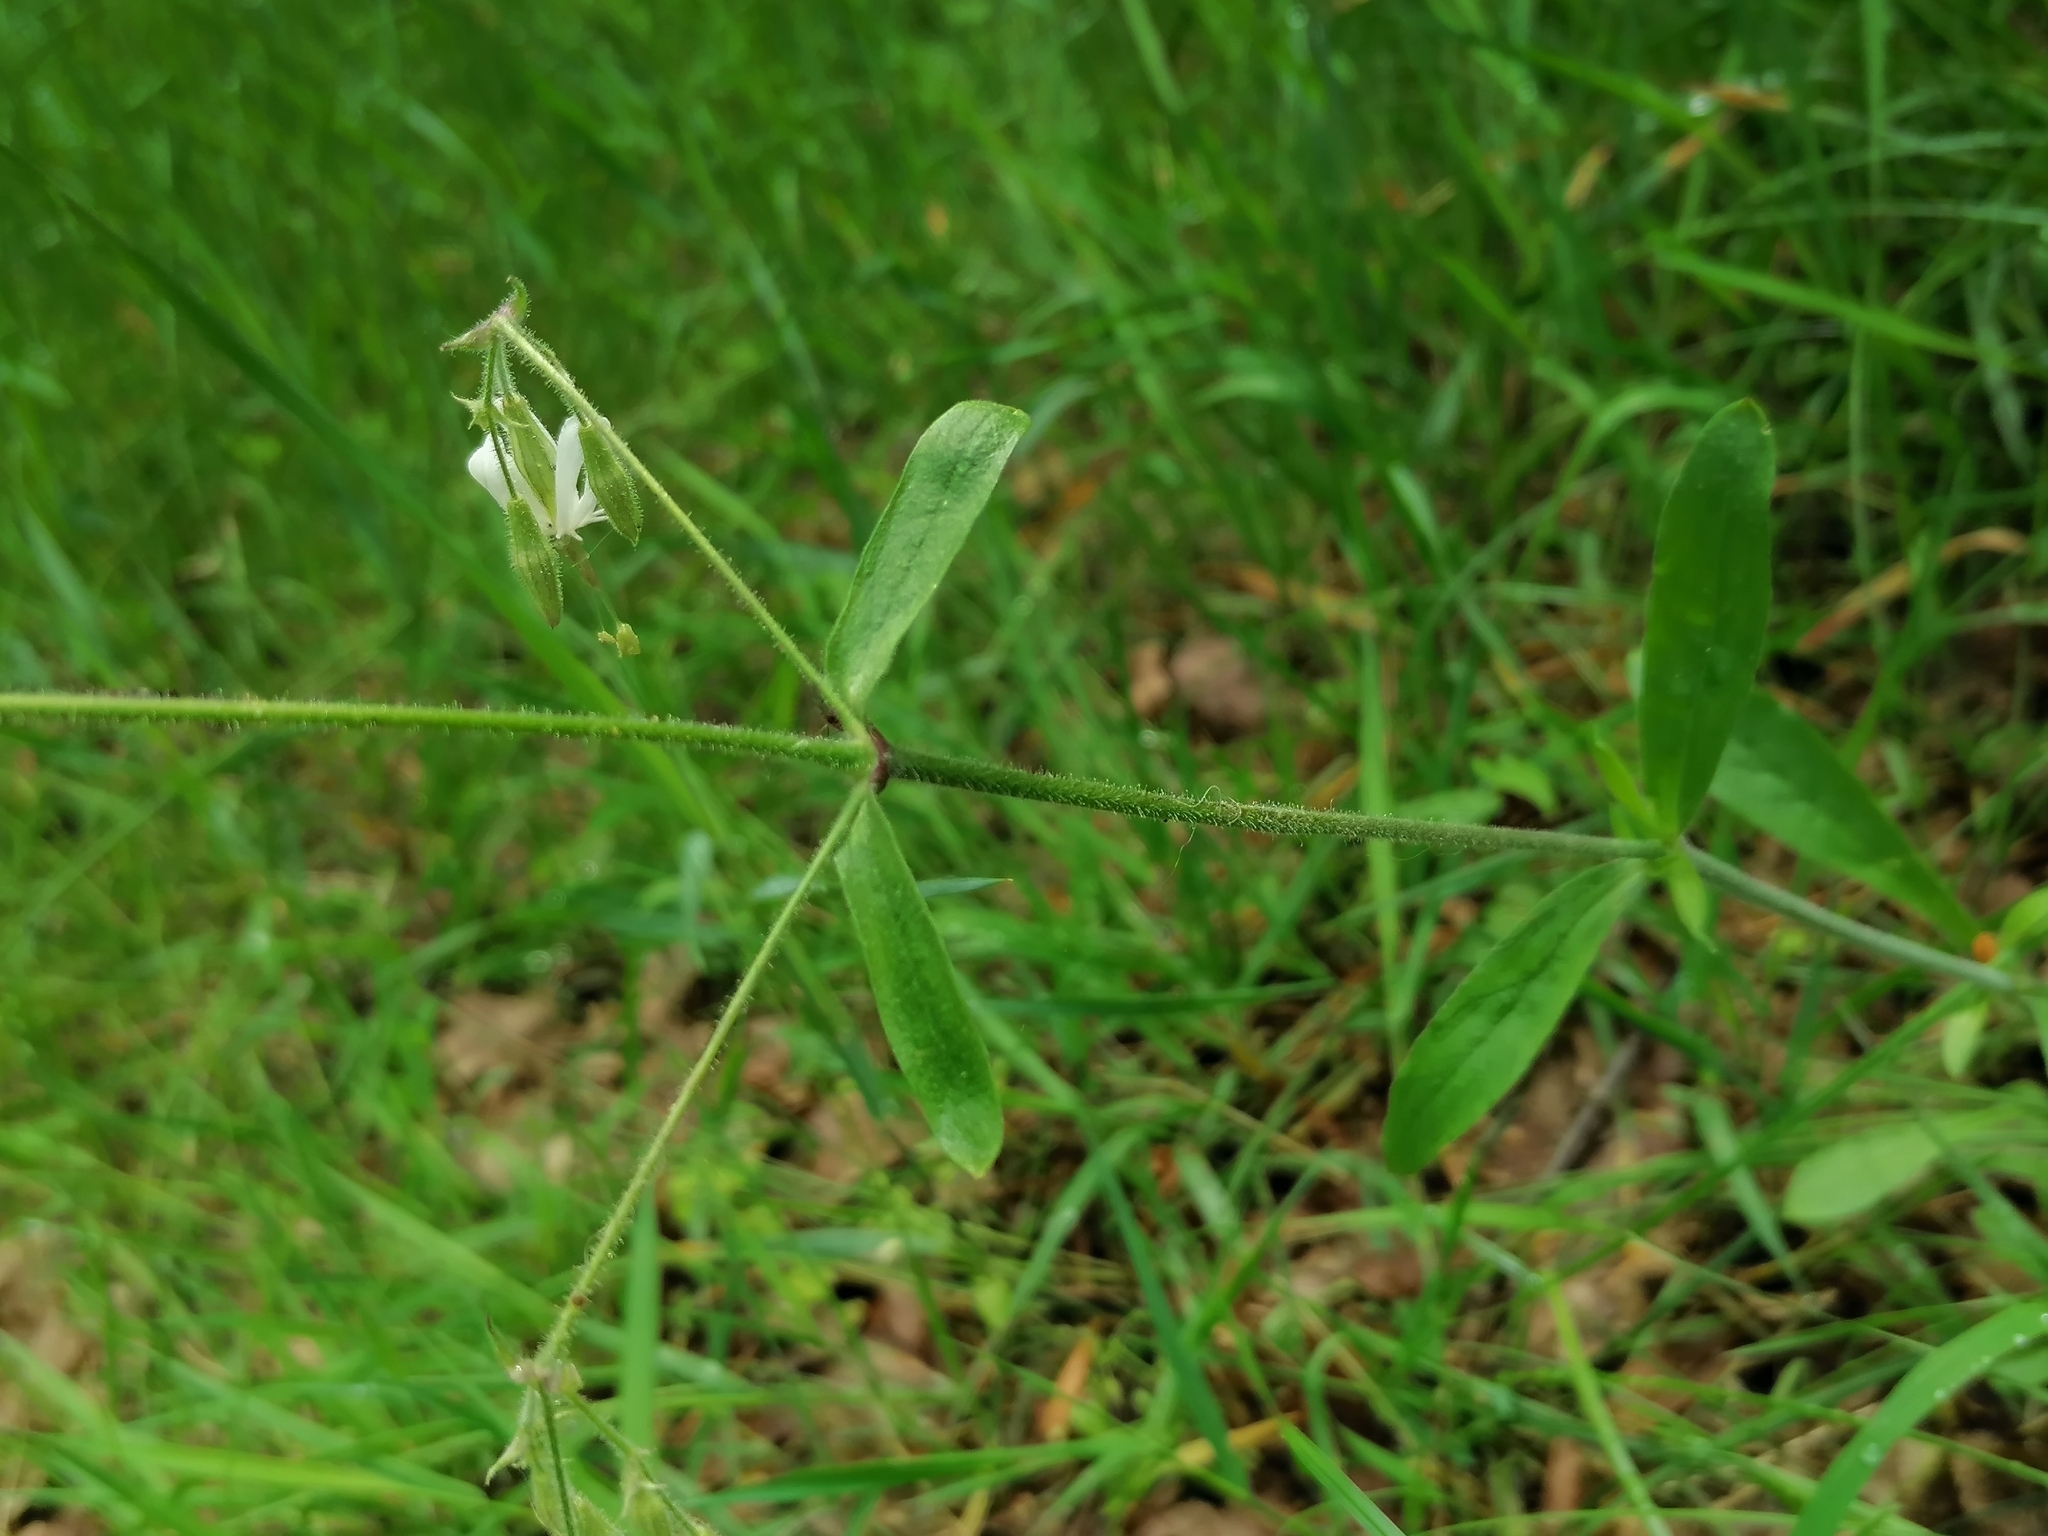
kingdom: Plantae
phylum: Tracheophyta
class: Magnoliopsida
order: Caryophyllales
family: Caryophyllaceae
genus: Silene
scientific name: Silene nutans
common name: Nottingham catchfly
